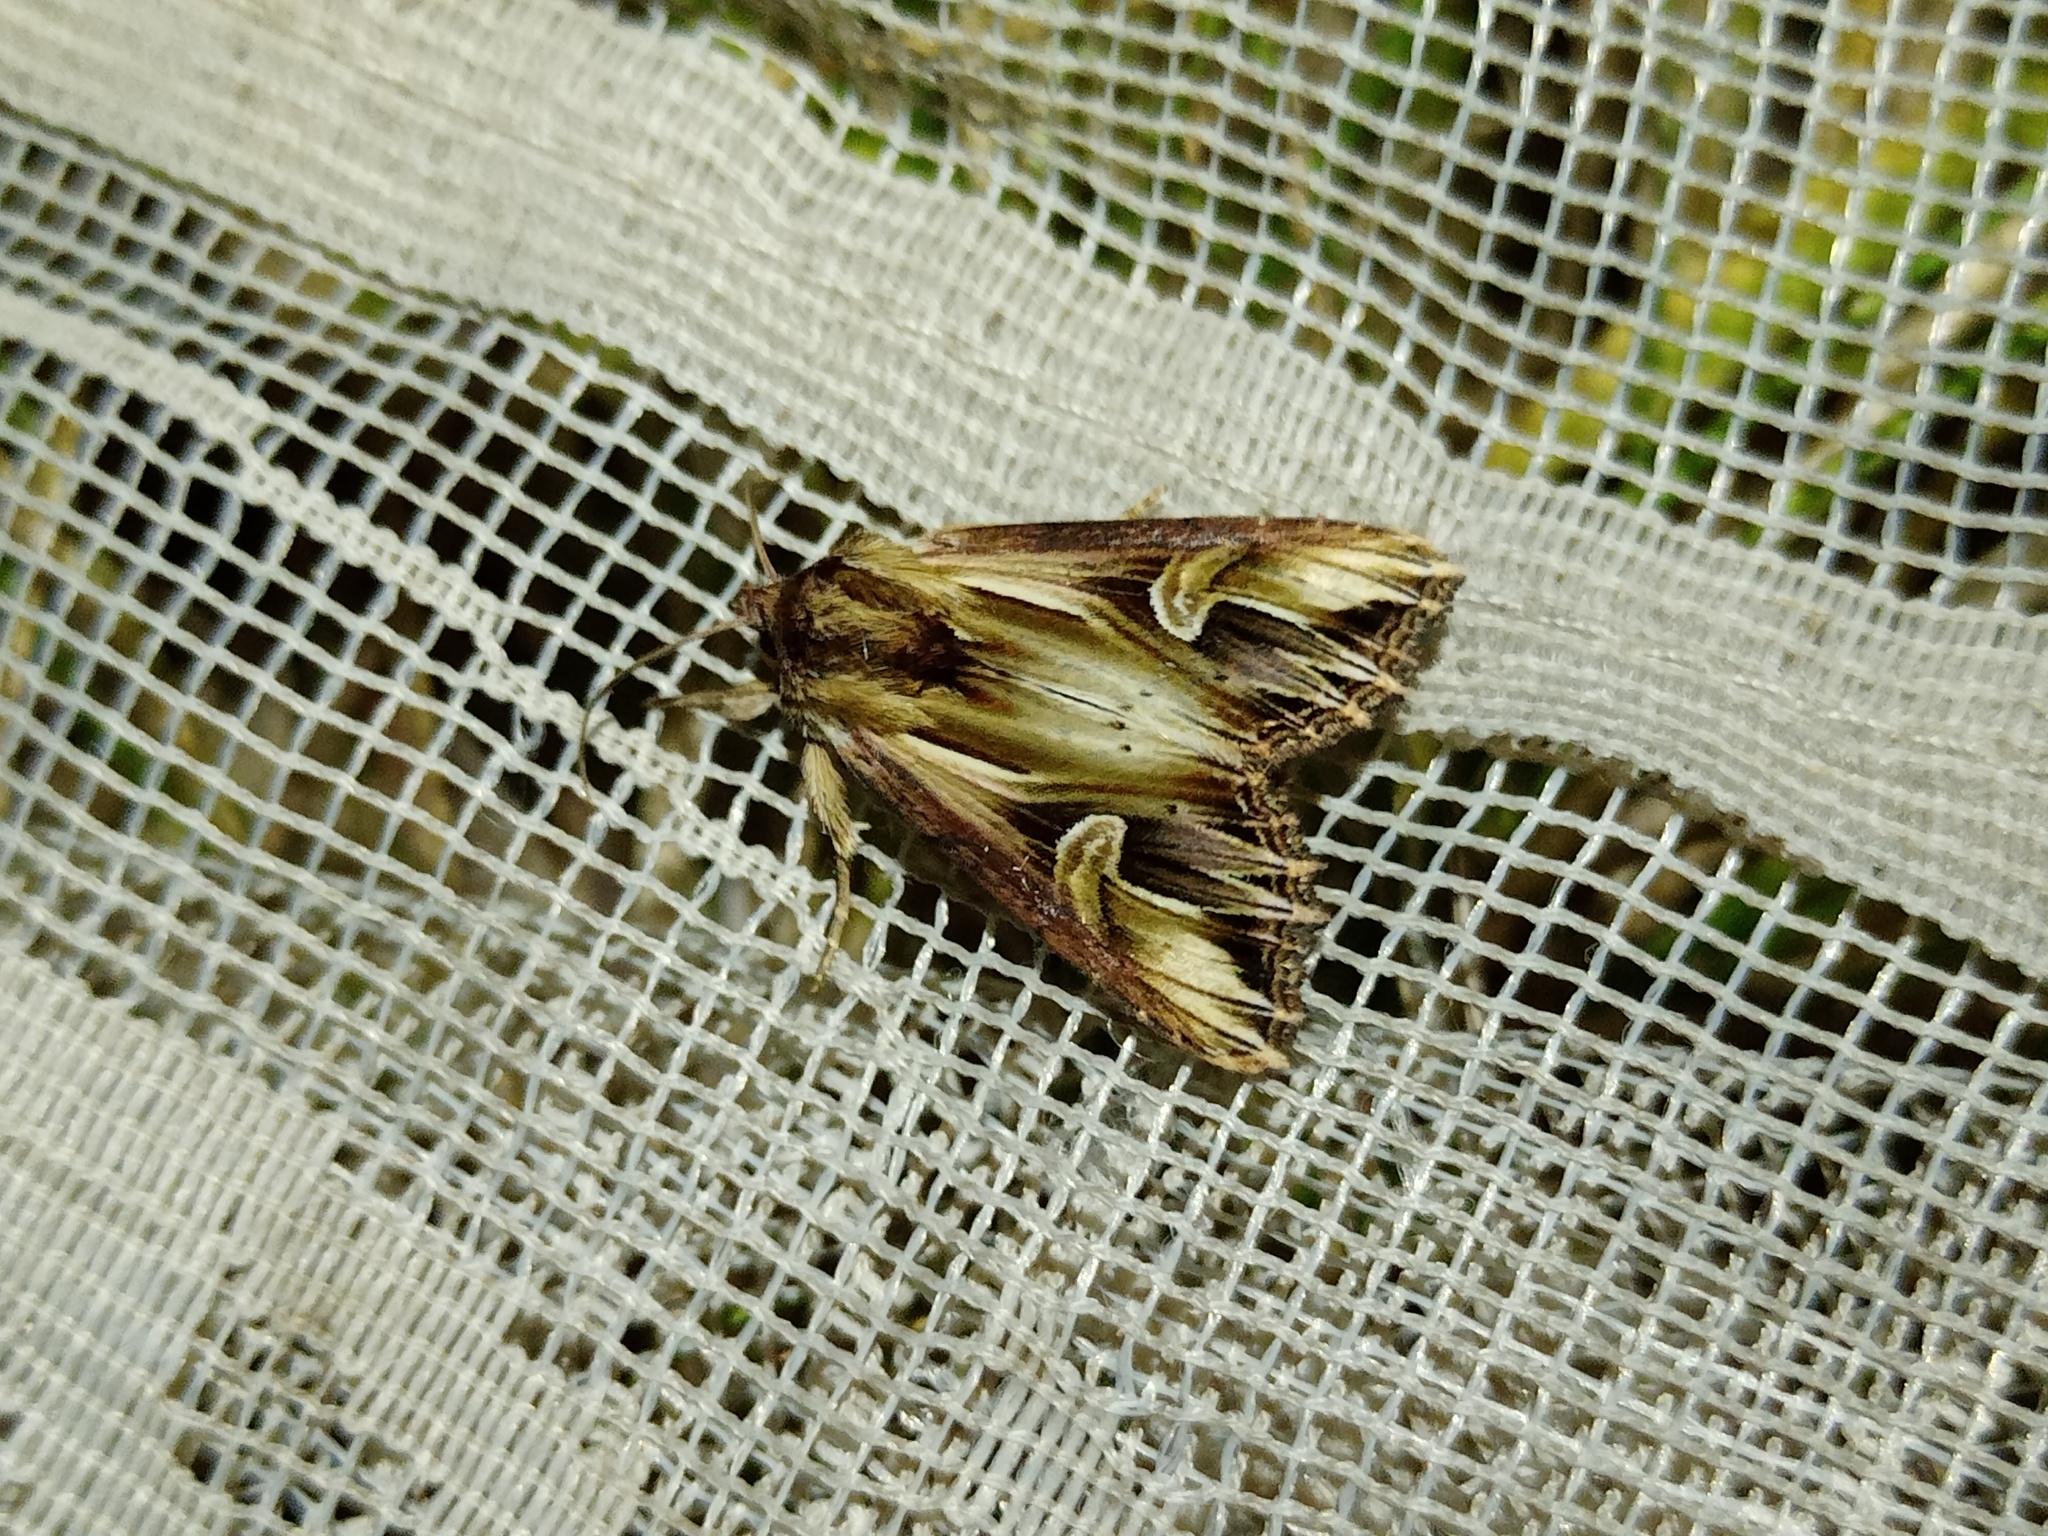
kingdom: Animalia
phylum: Arthropoda
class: Insecta
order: Lepidoptera
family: Noctuidae
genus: Actinotia
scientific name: Actinotia polyodon
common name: Purple cloud
